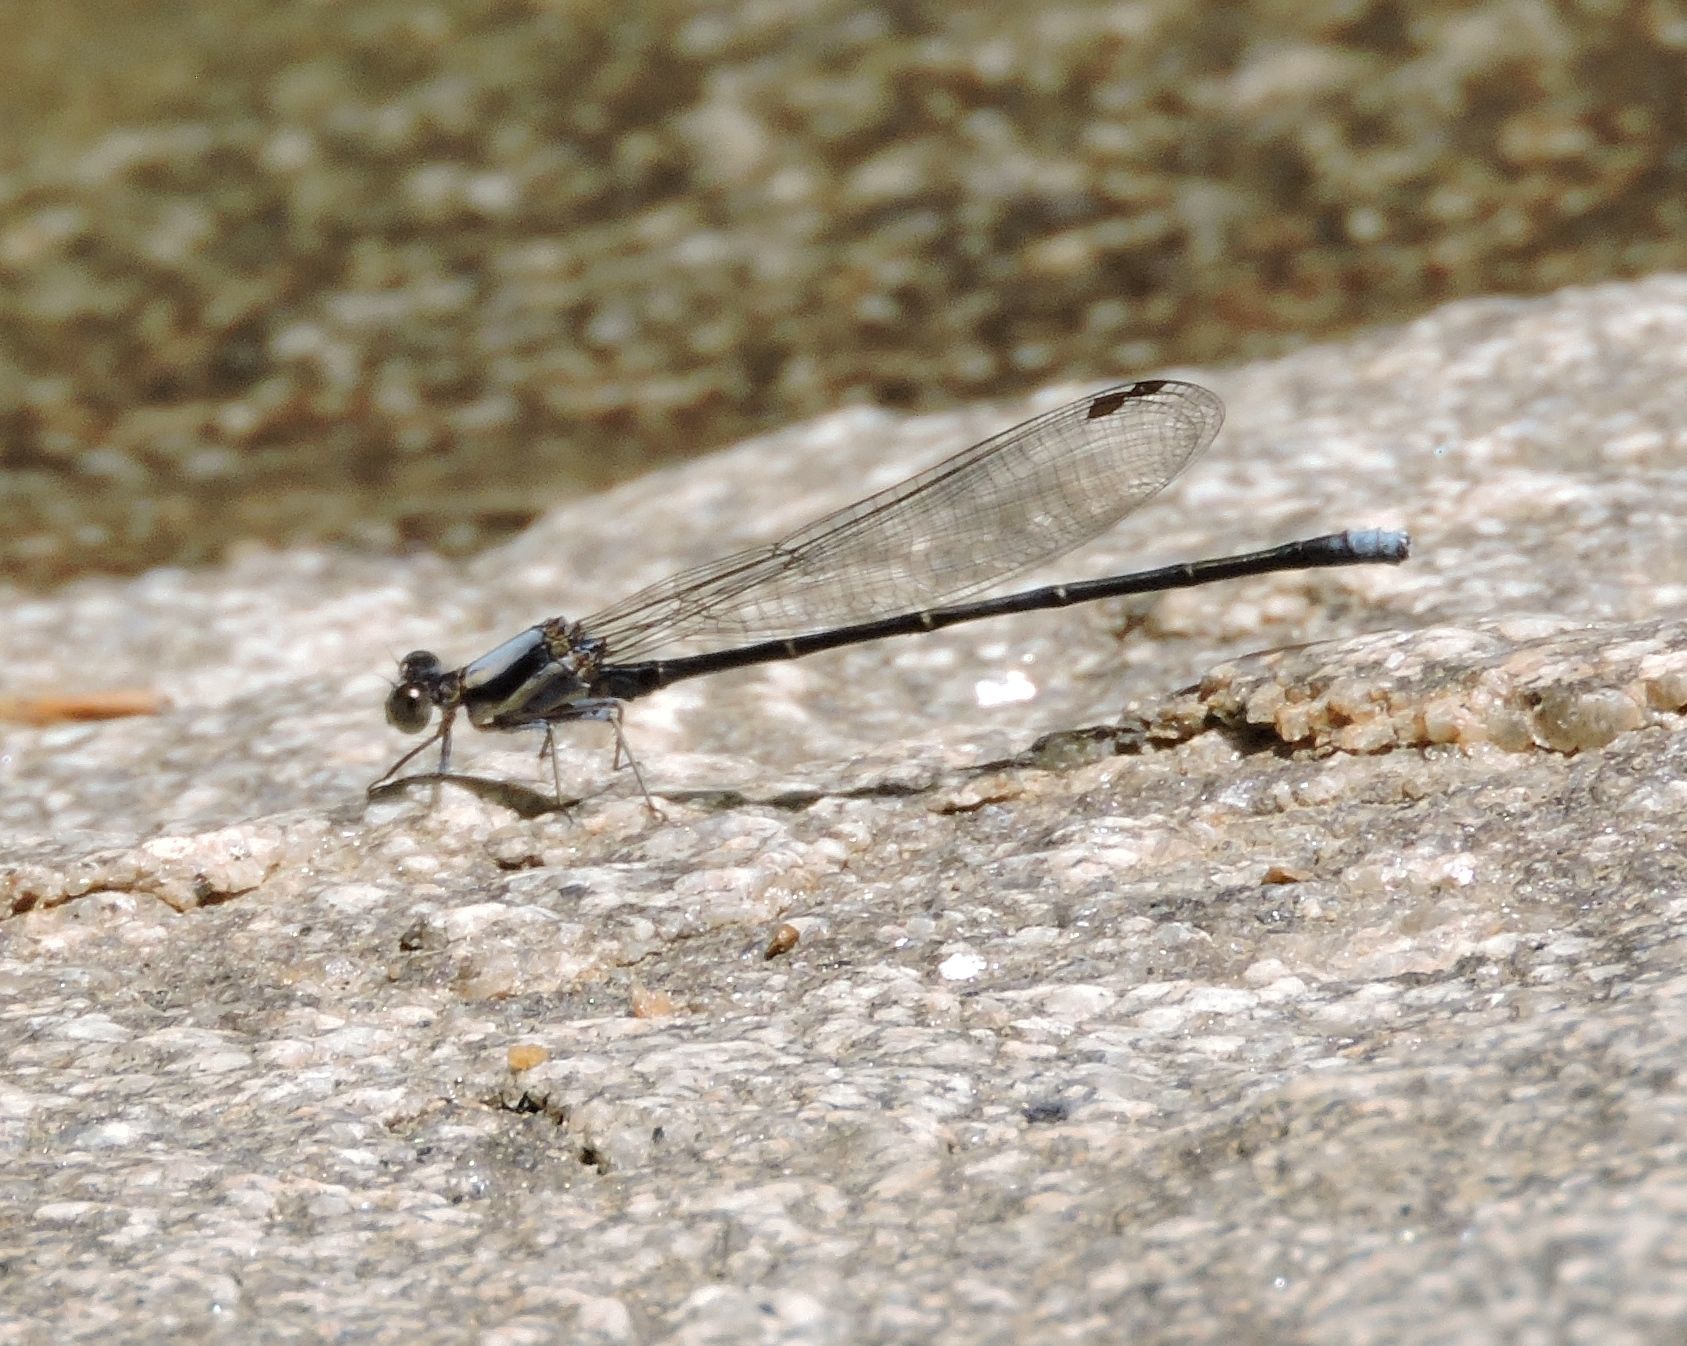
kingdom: Animalia
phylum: Arthropoda
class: Insecta
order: Odonata
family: Coenagrionidae
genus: Argia
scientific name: Argia moesta
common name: Powdered dancer
